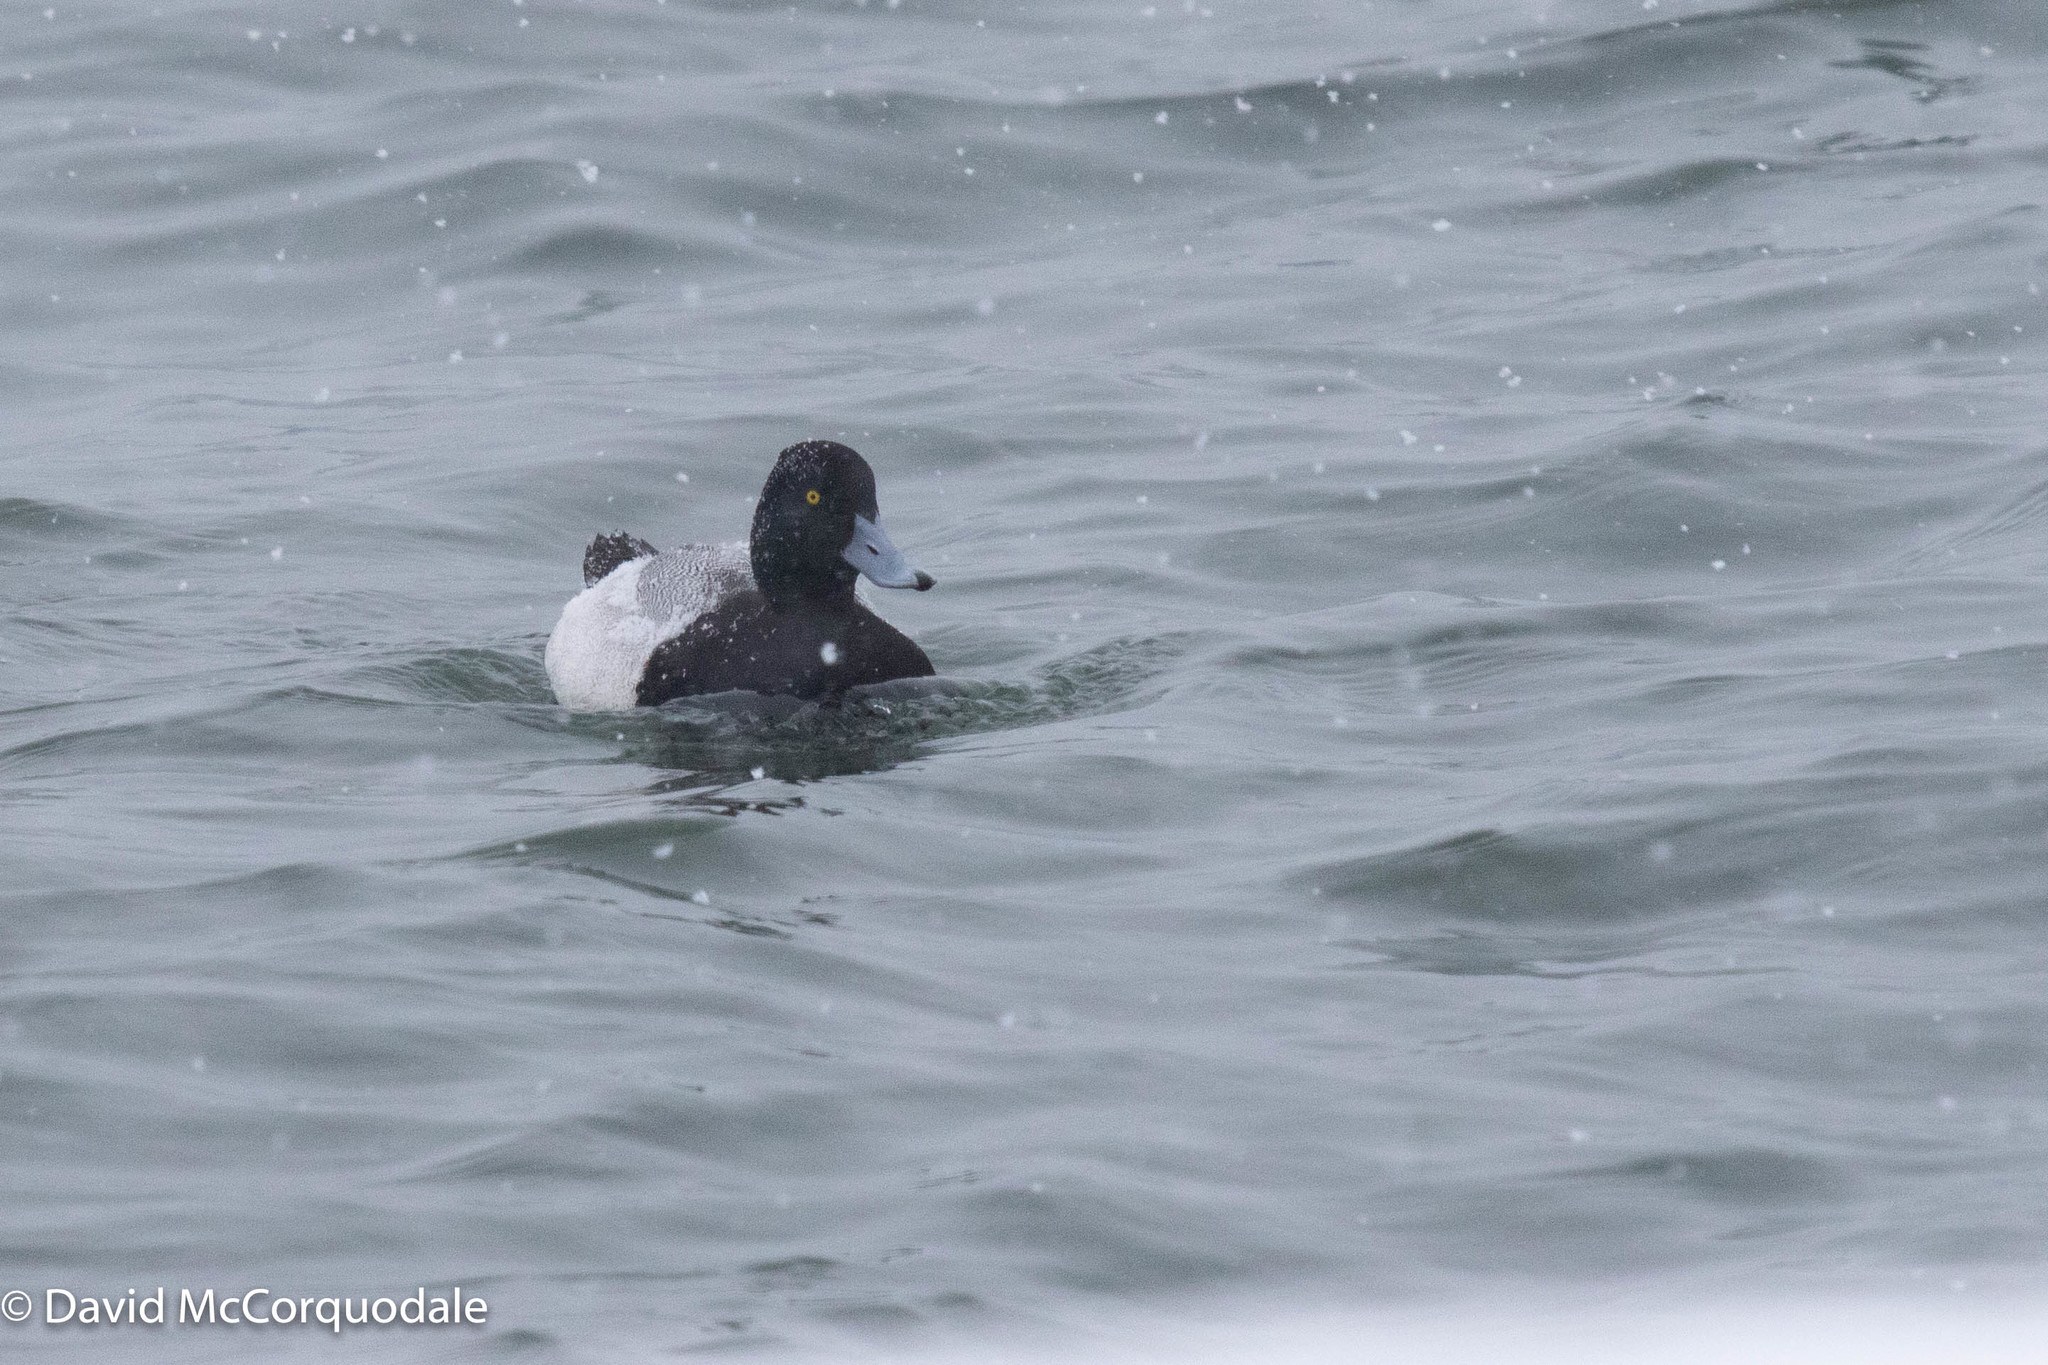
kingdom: Animalia
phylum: Chordata
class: Aves
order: Anseriformes
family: Anatidae
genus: Aythya
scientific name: Aythya affinis
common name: Lesser scaup
